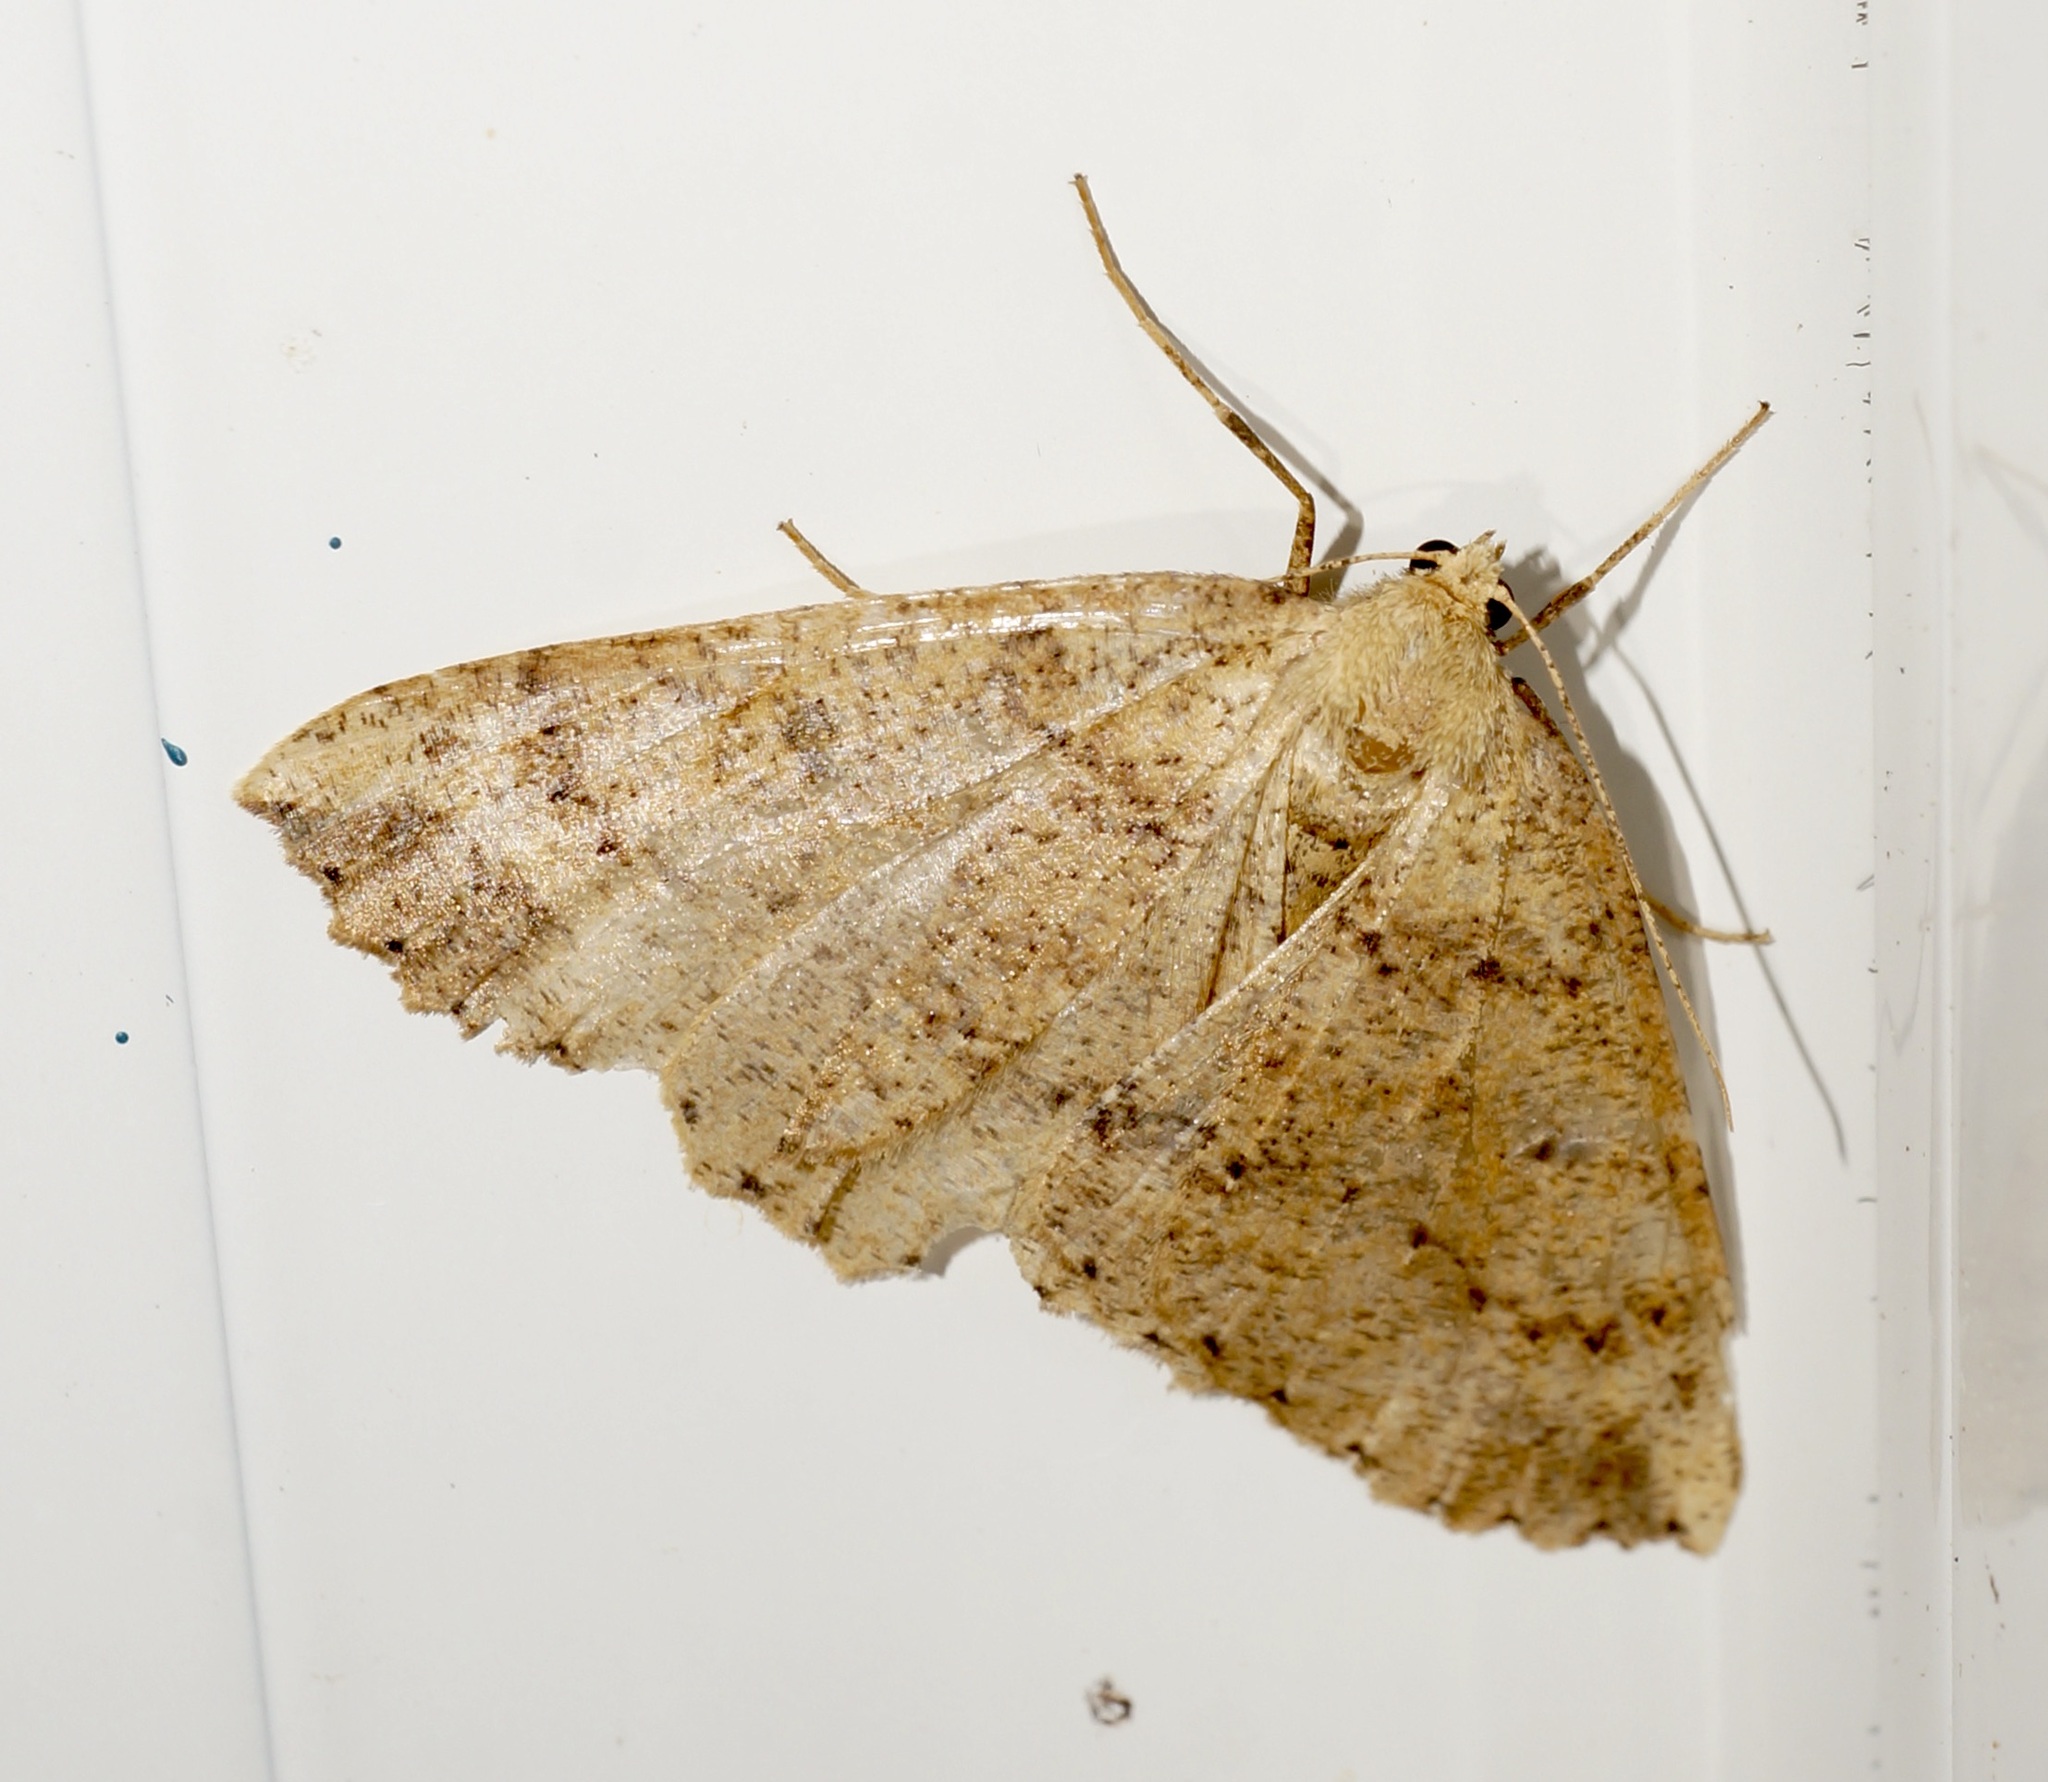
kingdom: Animalia
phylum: Arthropoda
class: Insecta
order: Lepidoptera
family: Geometridae
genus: Cleora
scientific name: Cleora scriptaria
